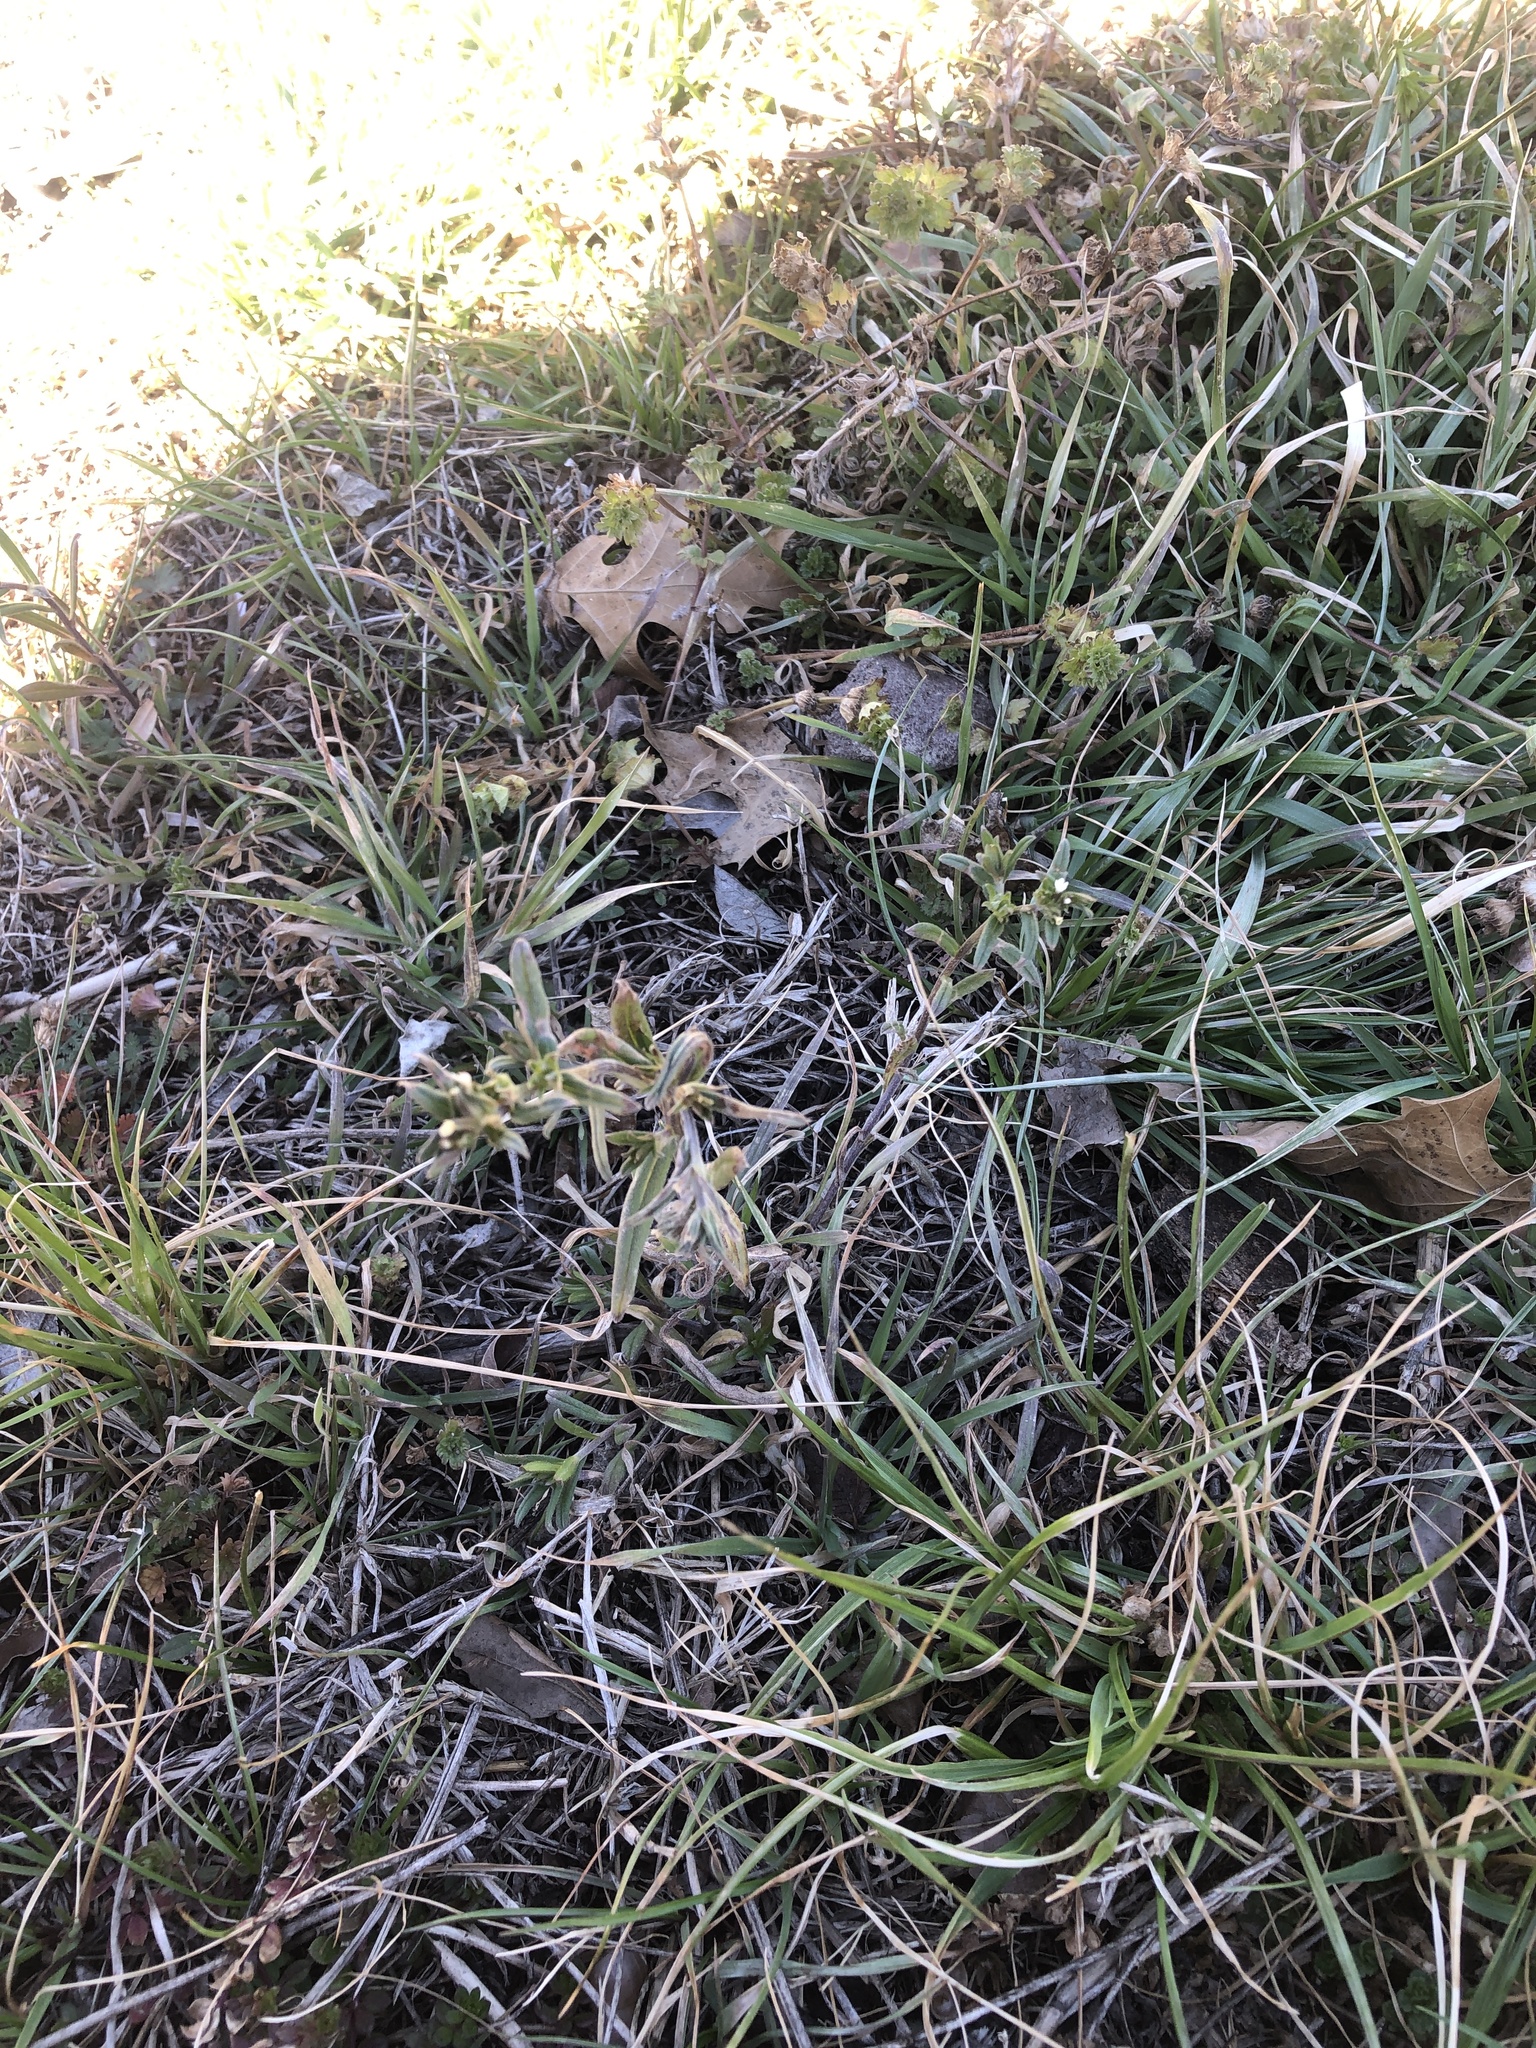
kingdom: Plantae
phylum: Tracheophyta
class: Magnoliopsida
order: Boraginales
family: Boraginaceae
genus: Buglossoides
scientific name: Buglossoides arvensis
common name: Corn gromwell
